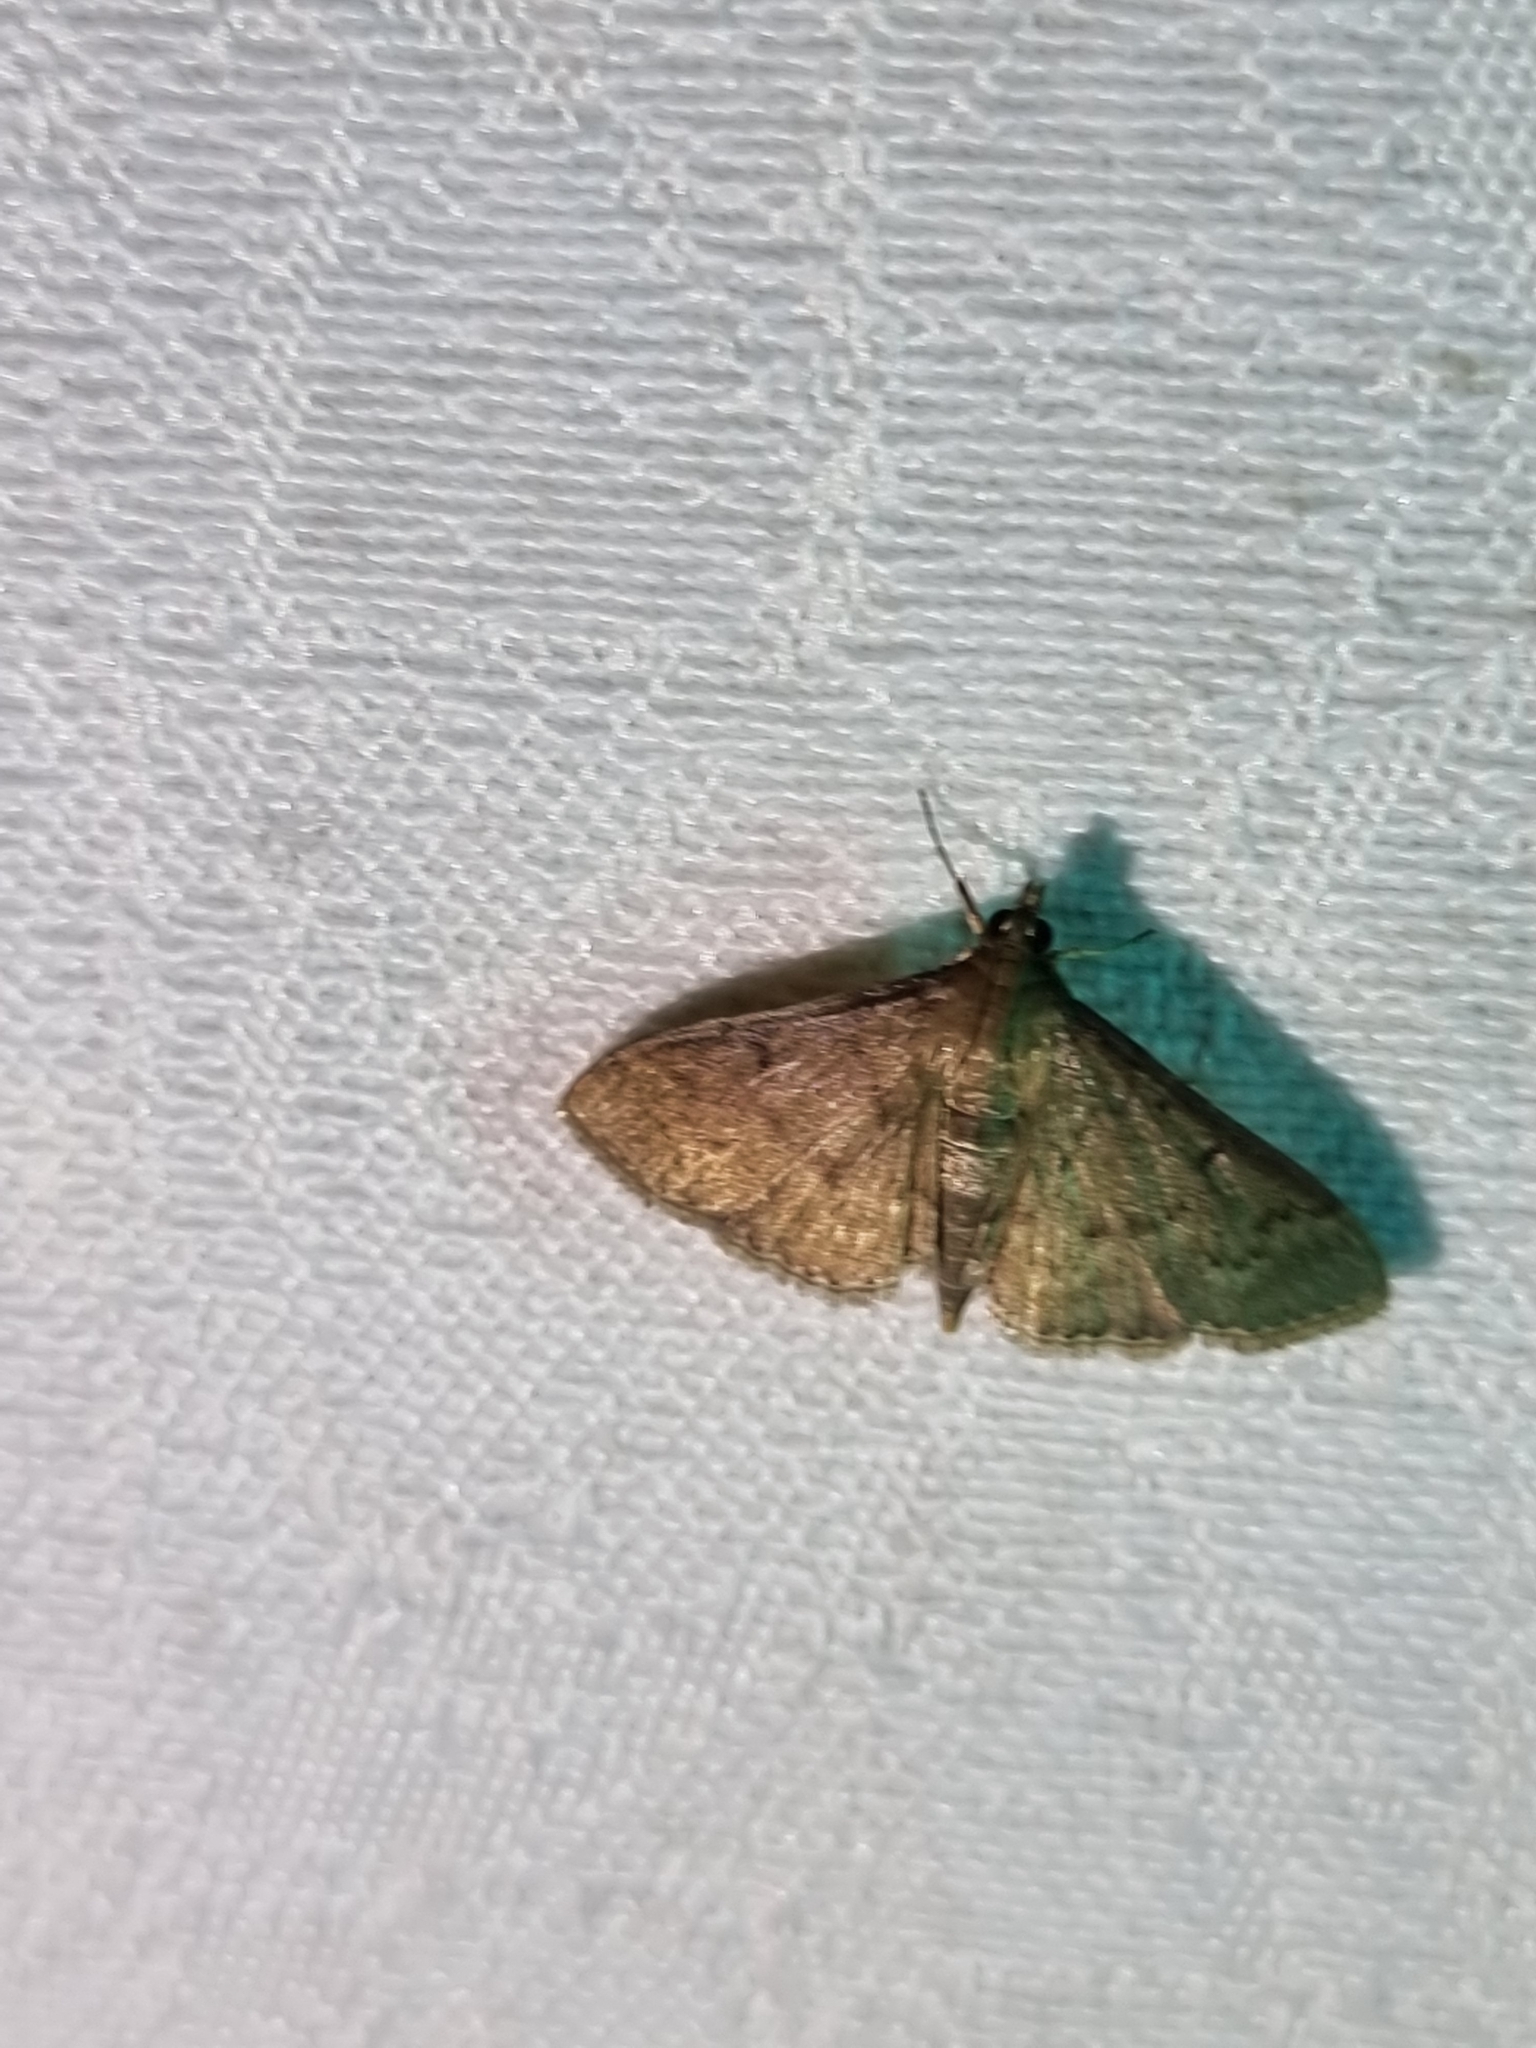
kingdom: Animalia
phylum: Arthropoda
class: Insecta
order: Lepidoptera
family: Crambidae
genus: Herpetogramma
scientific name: Herpetogramma licarsisalis
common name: Grass webworm
